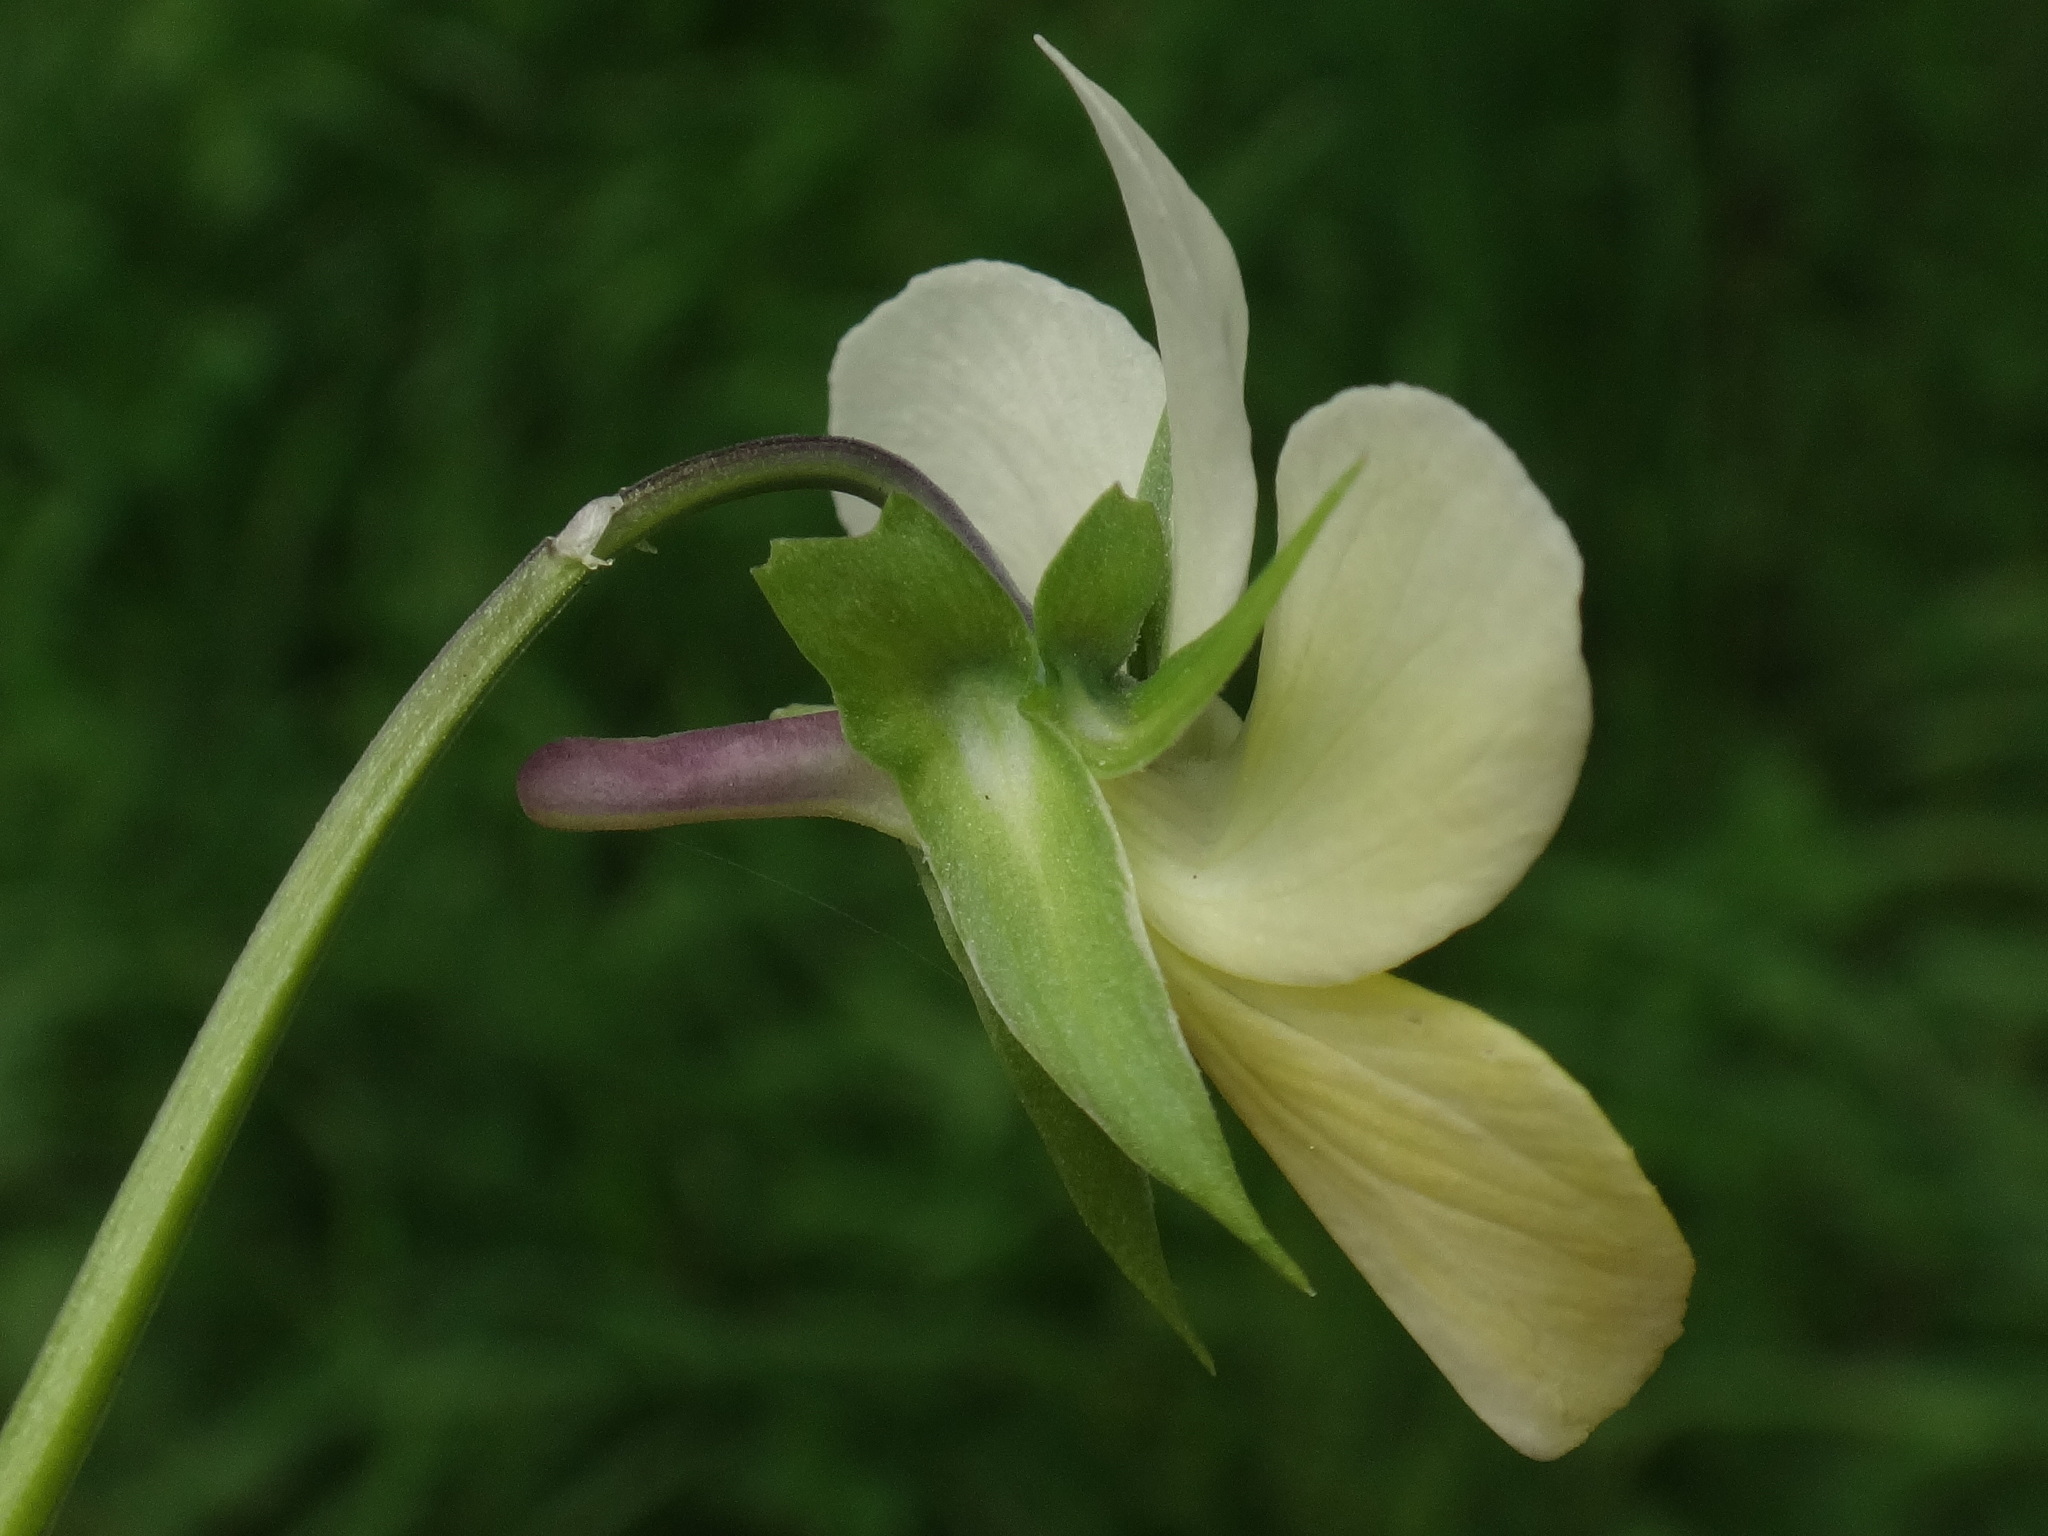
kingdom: Plantae
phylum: Tracheophyta
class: Magnoliopsida
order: Malpighiales
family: Violaceae
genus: Viola
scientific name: Viola tricolor
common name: Pansy
